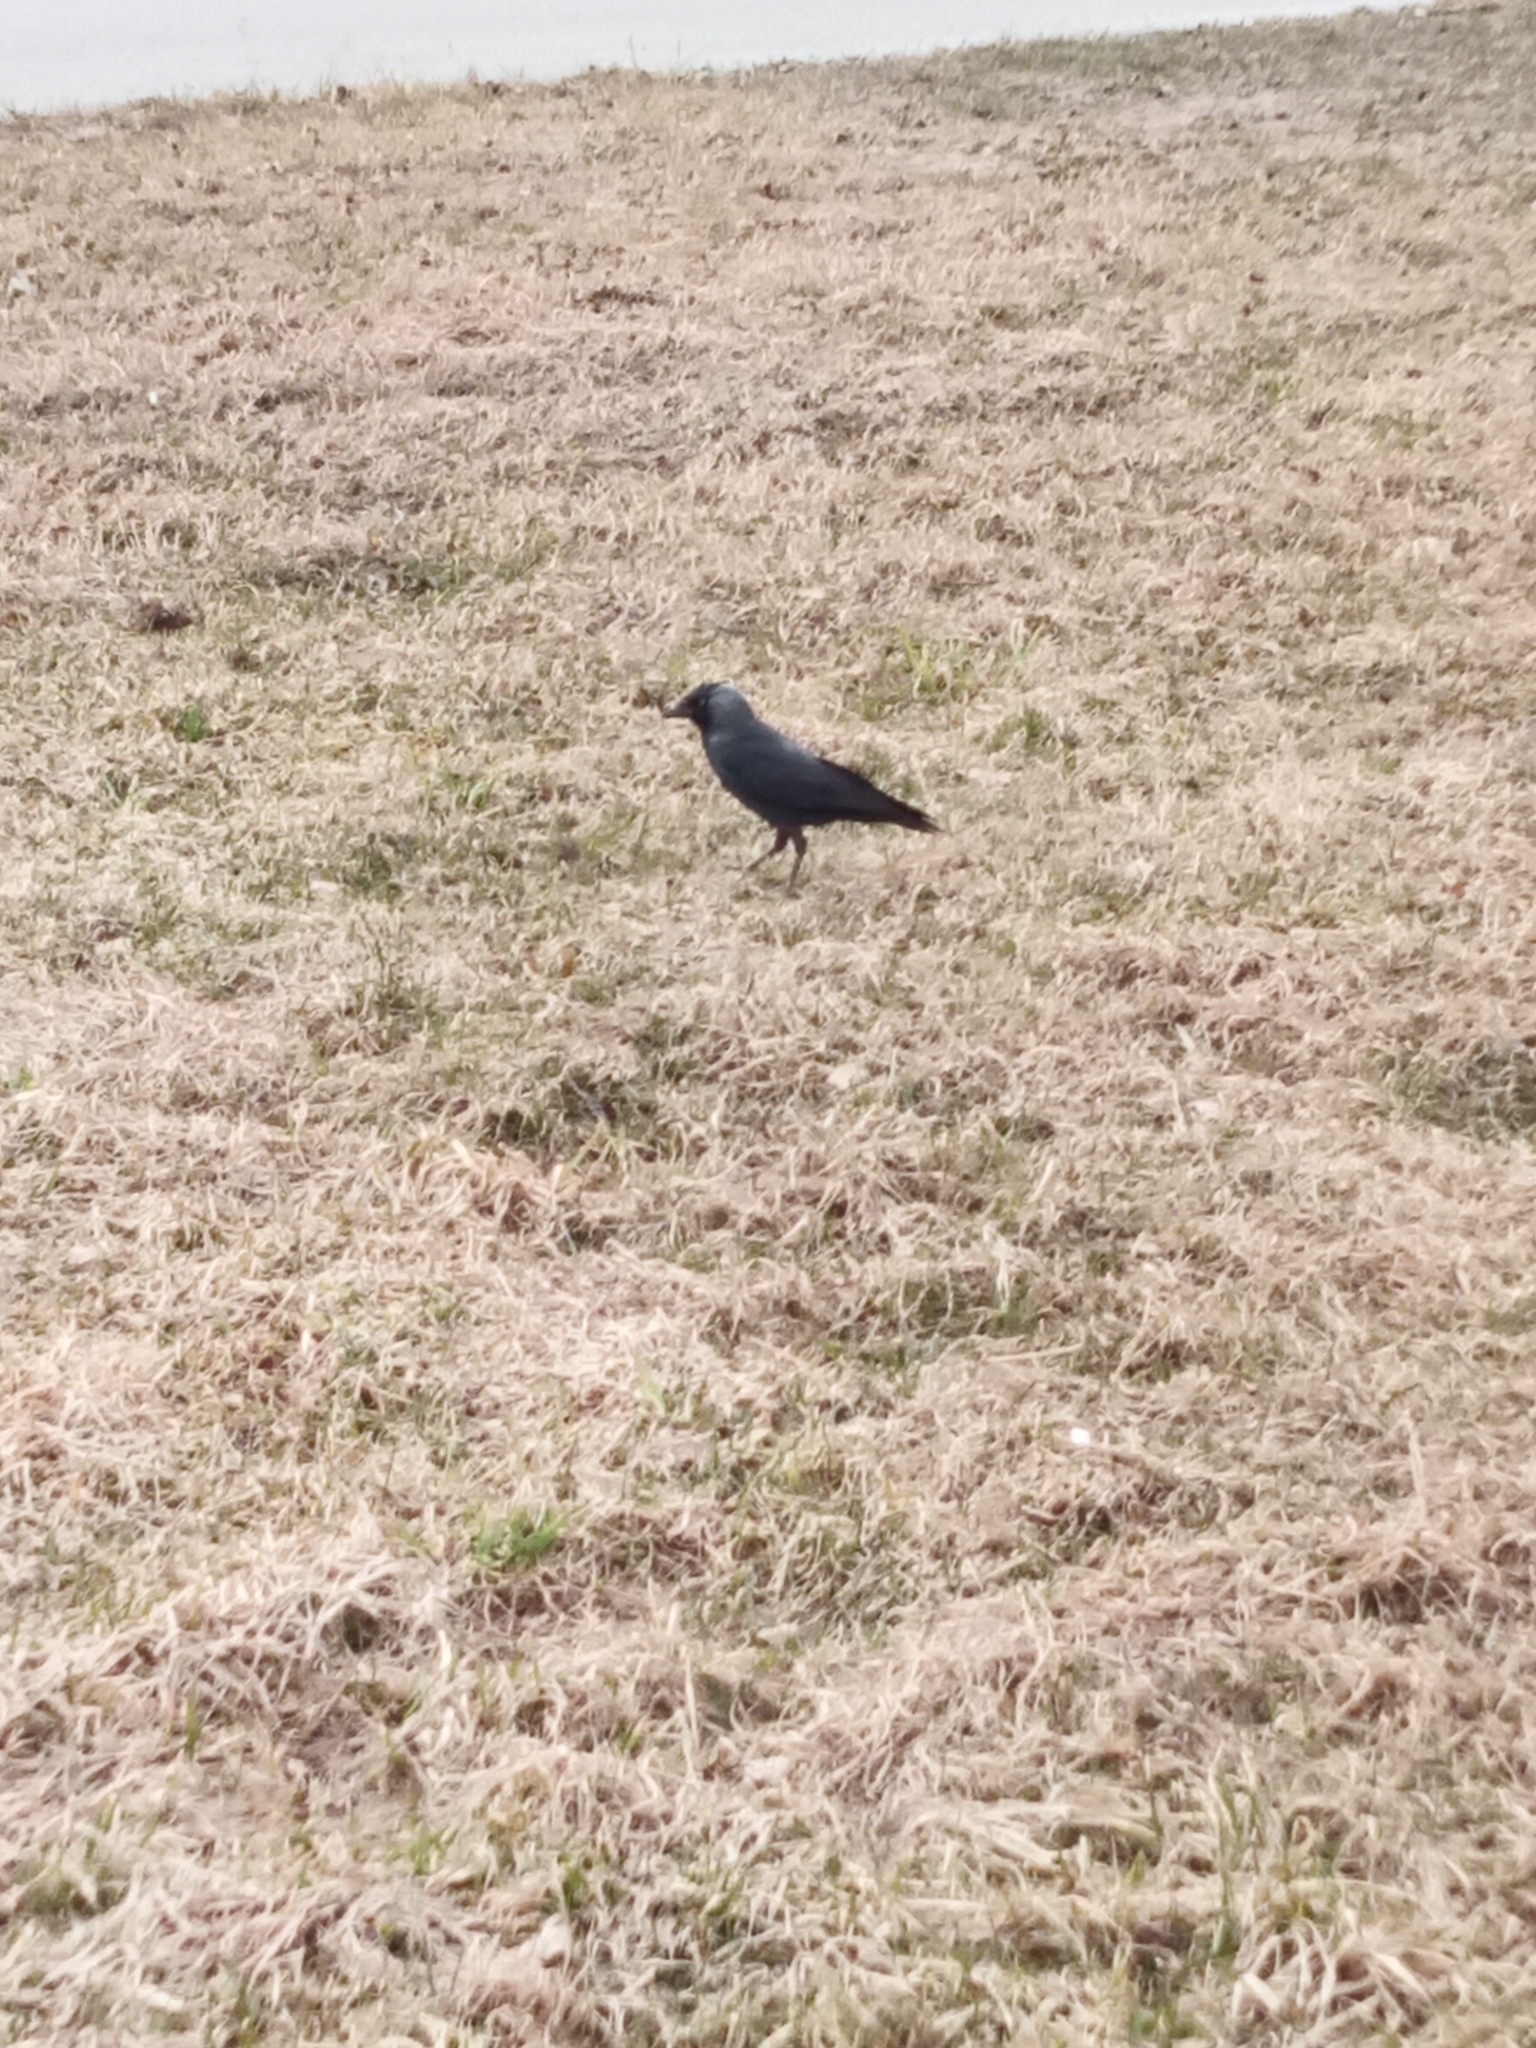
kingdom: Animalia
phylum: Chordata
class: Aves
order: Passeriformes
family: Corvidae
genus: Coloeus
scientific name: Coloeus monedula
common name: Western jackdaw
